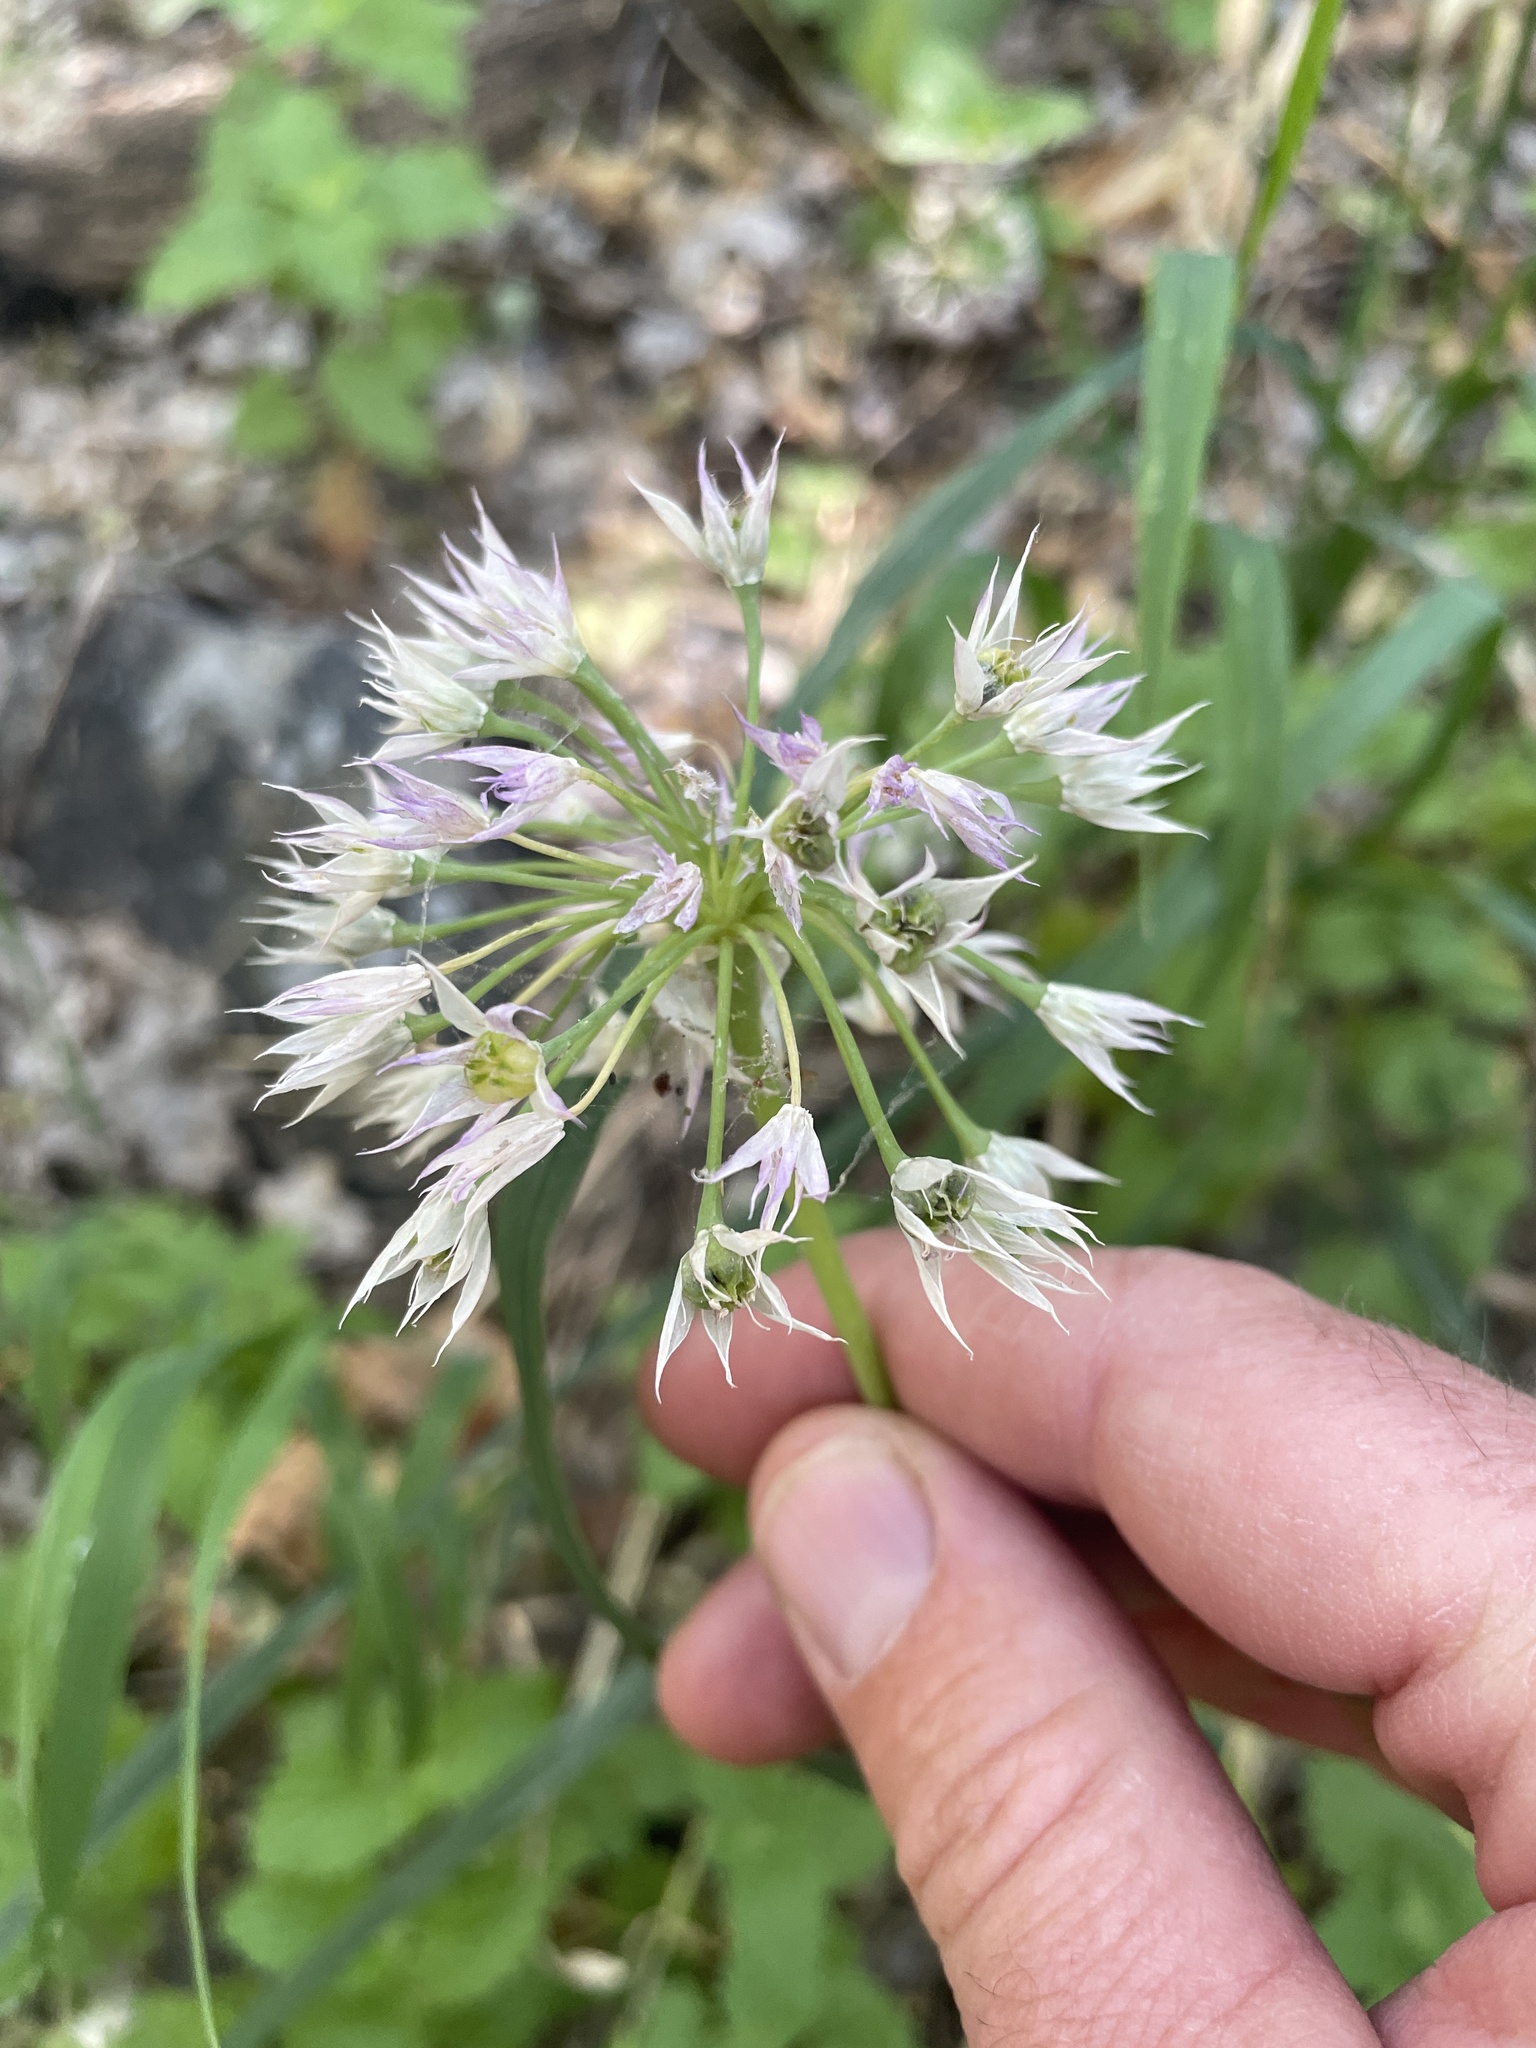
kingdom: Plantae
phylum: Tracheophyta
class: Liliopsida
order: Asparagales
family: Amaryllidaceae
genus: Allium
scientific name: Allium bisceptrum
